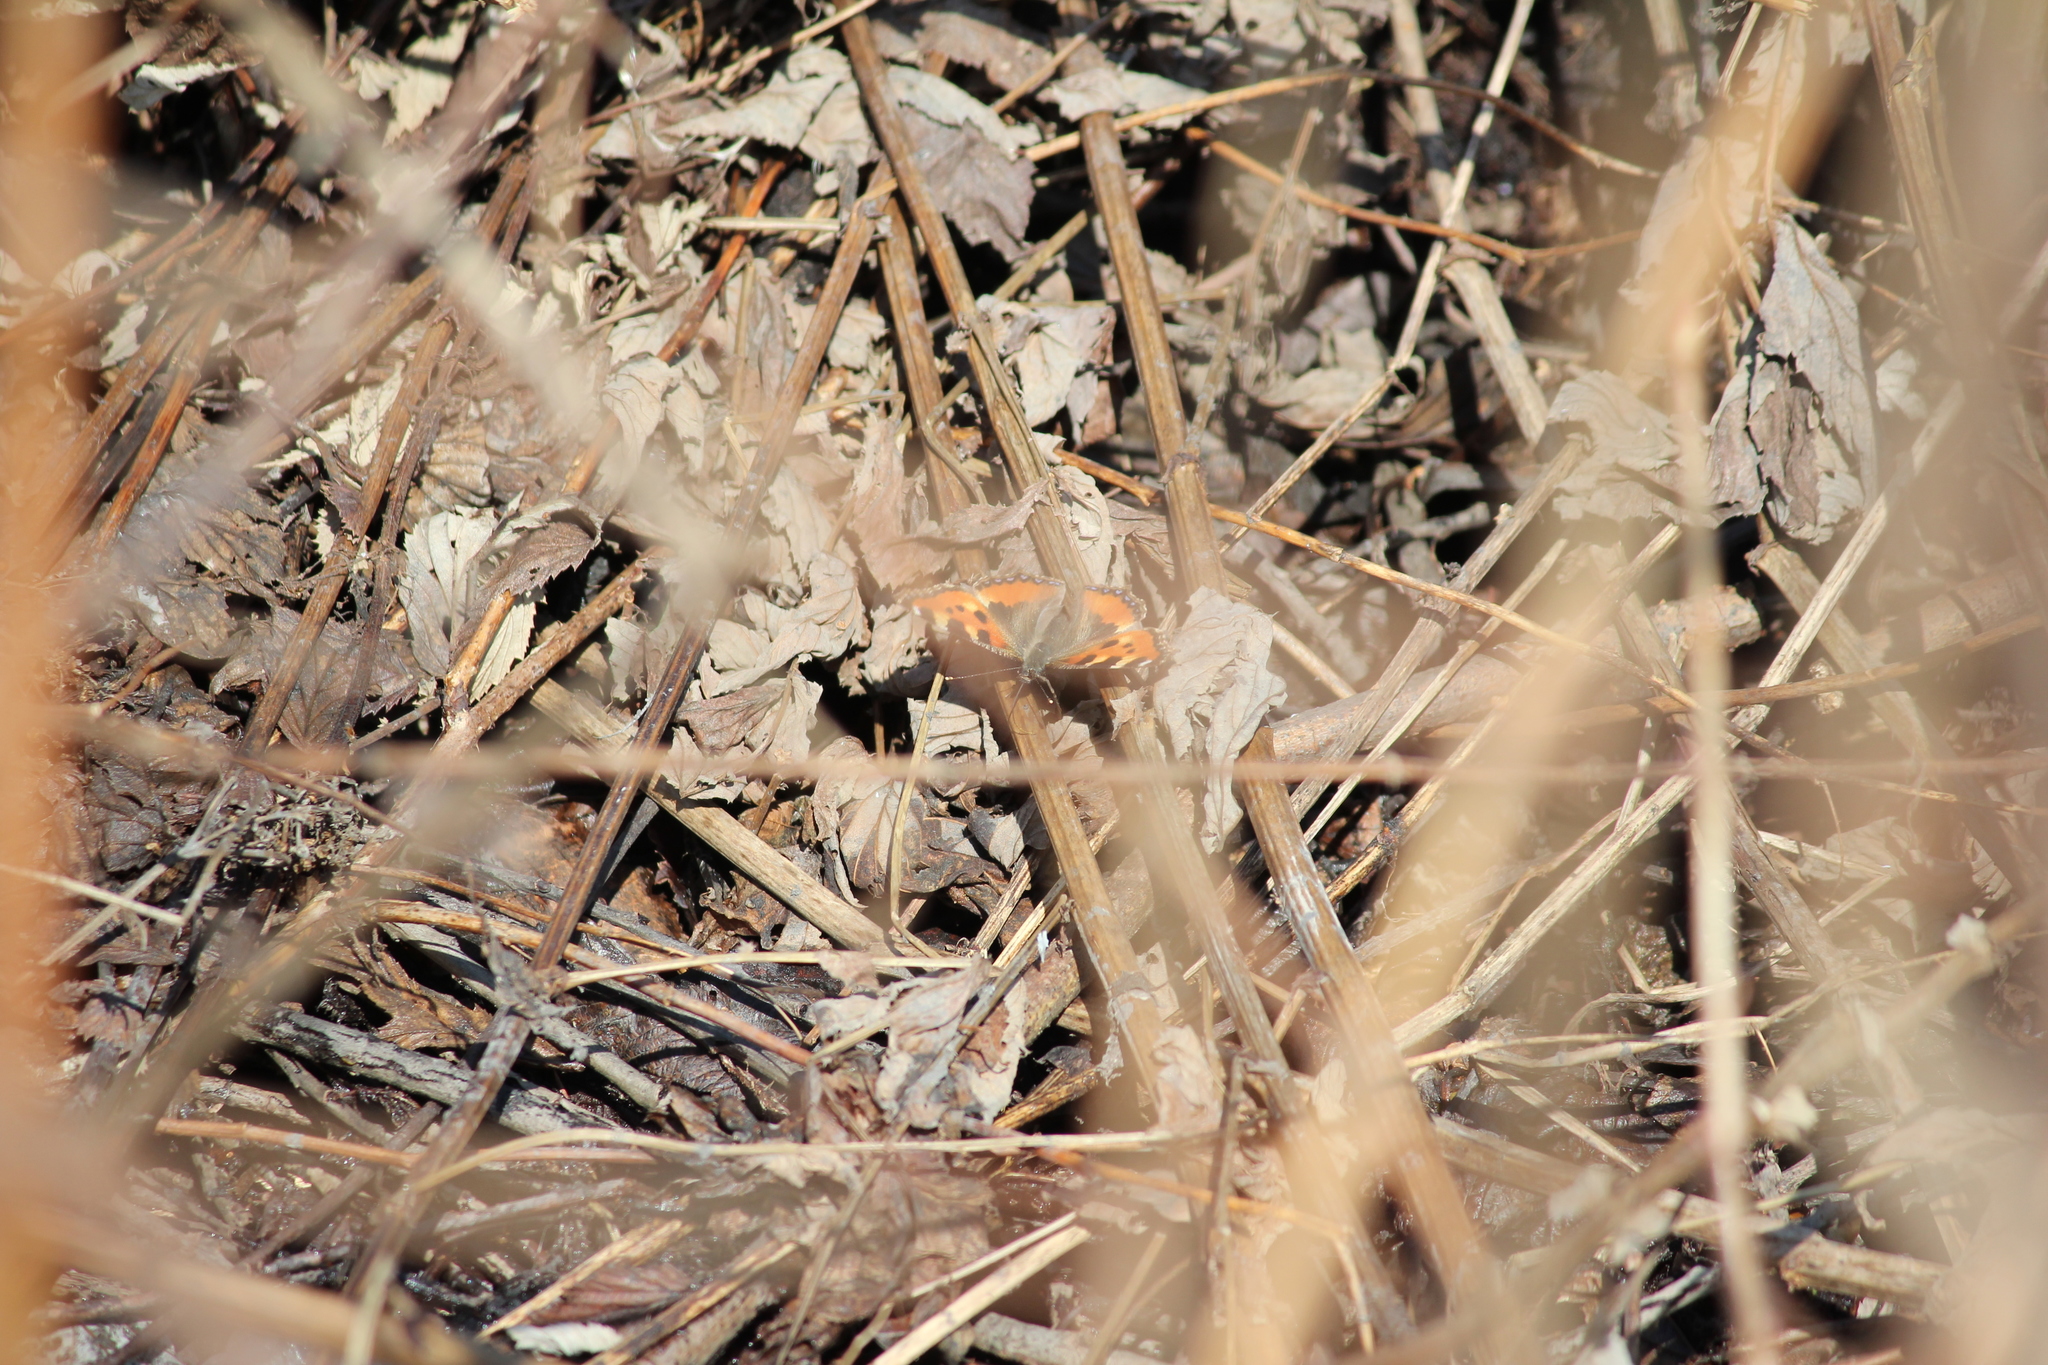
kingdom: Animalia
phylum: Arthropoda
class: Insecta
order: Lepidoptera
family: Nymphalidae
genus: Aglais
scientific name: Aglais urticae
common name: Small tortoiseshell
